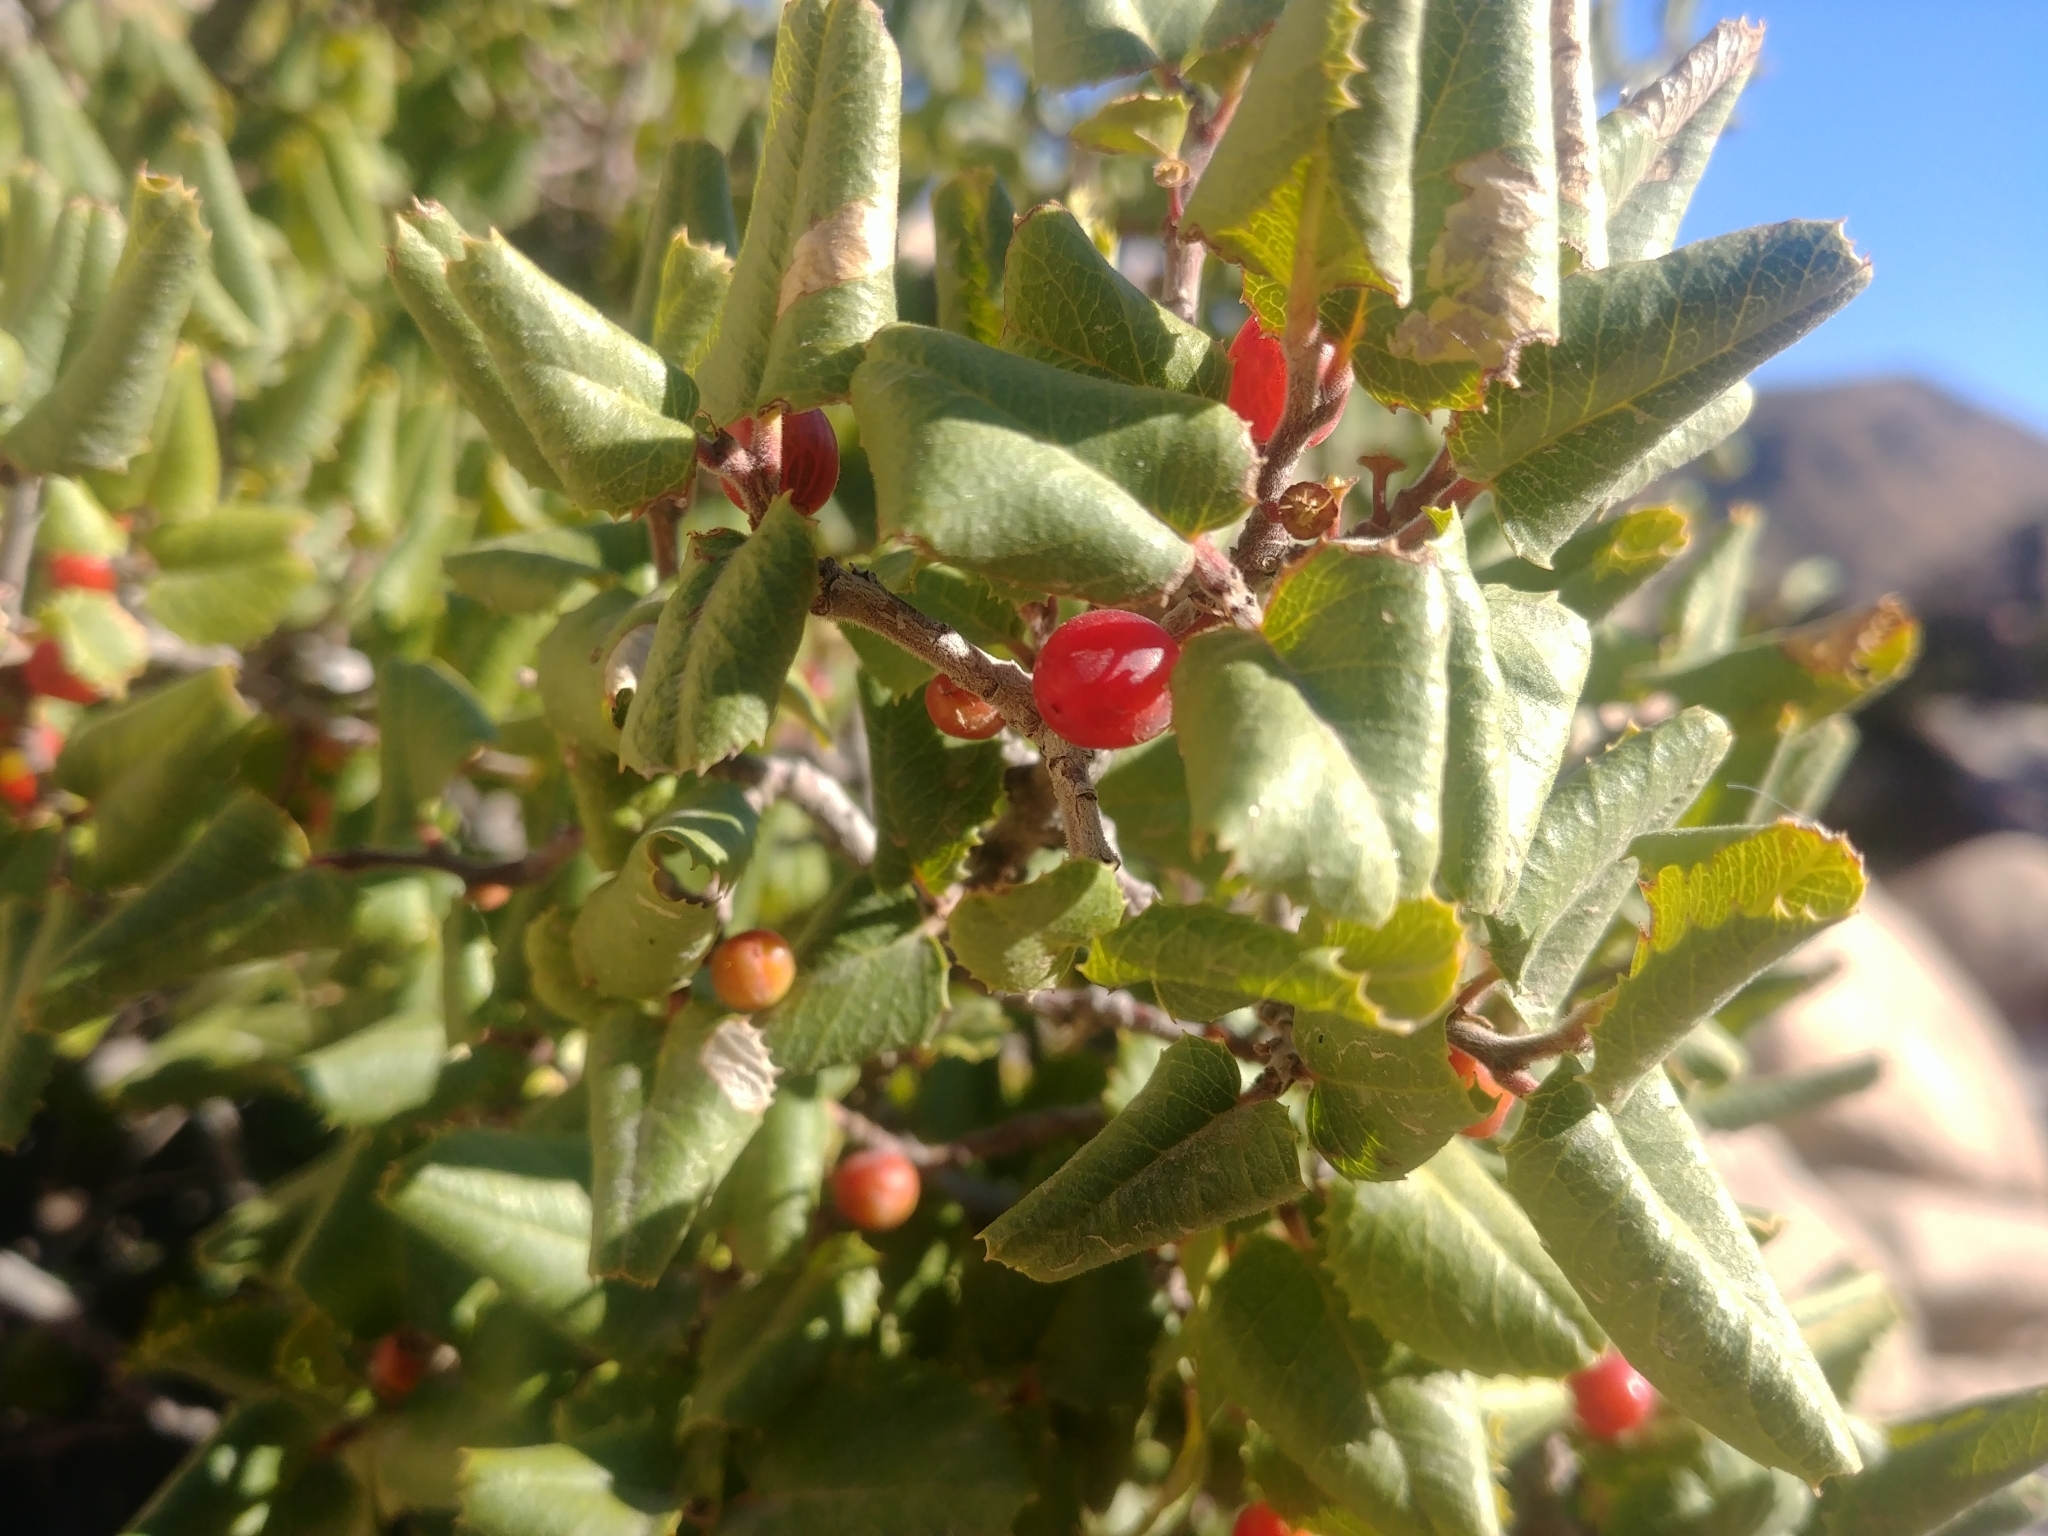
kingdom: Plantae
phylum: Tracheophyta
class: Magnoliopsida
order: Rosales
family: Rhamnaceae
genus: Endotropis
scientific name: Endotropis crocea
